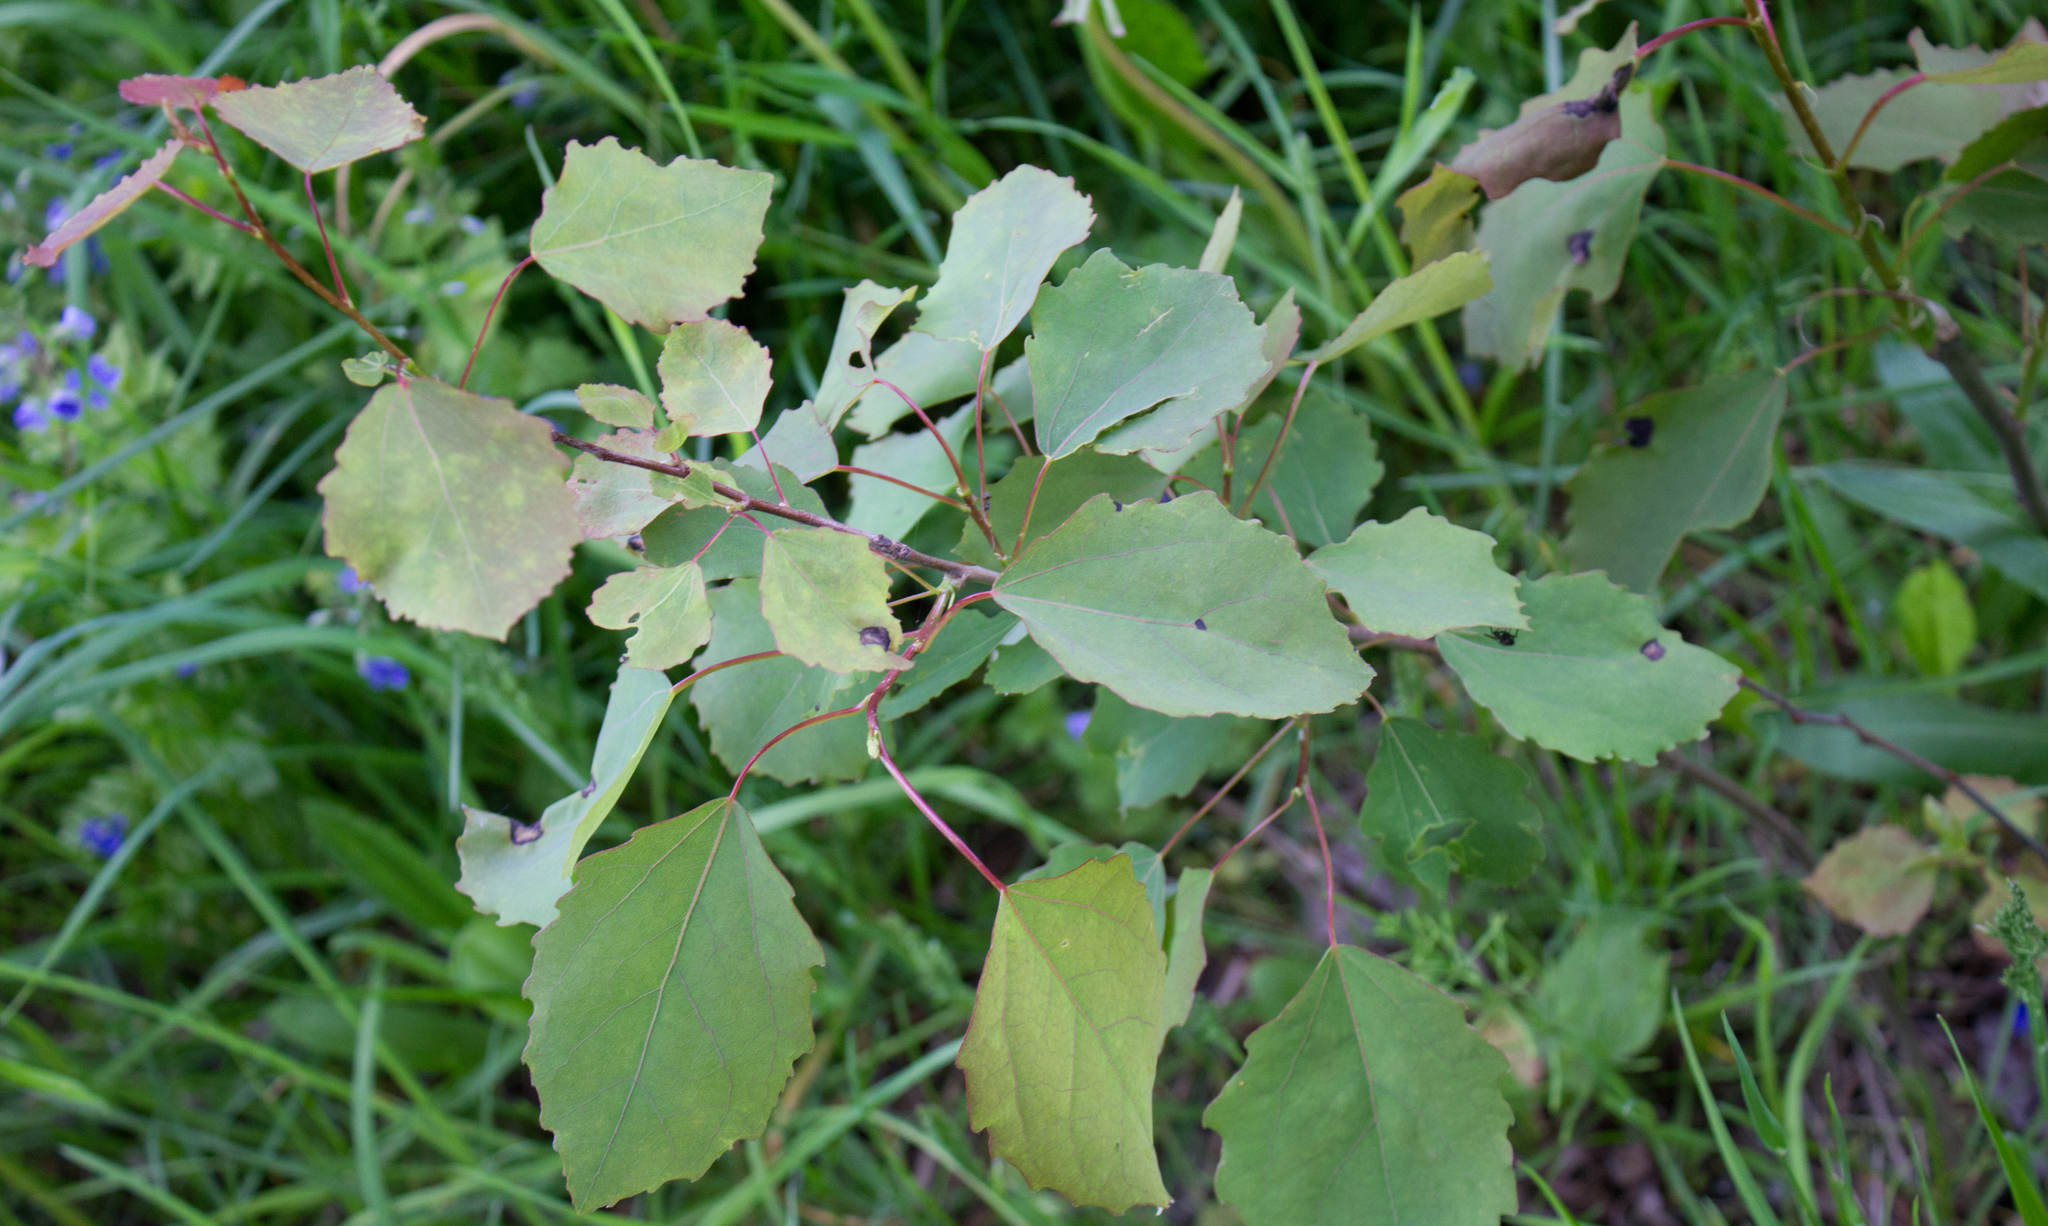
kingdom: Plantae
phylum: Tracheophyta
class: Magnoliopsida
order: Malpighiales
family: Salicaceae
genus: Populus
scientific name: Populus tremula
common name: European aspen
